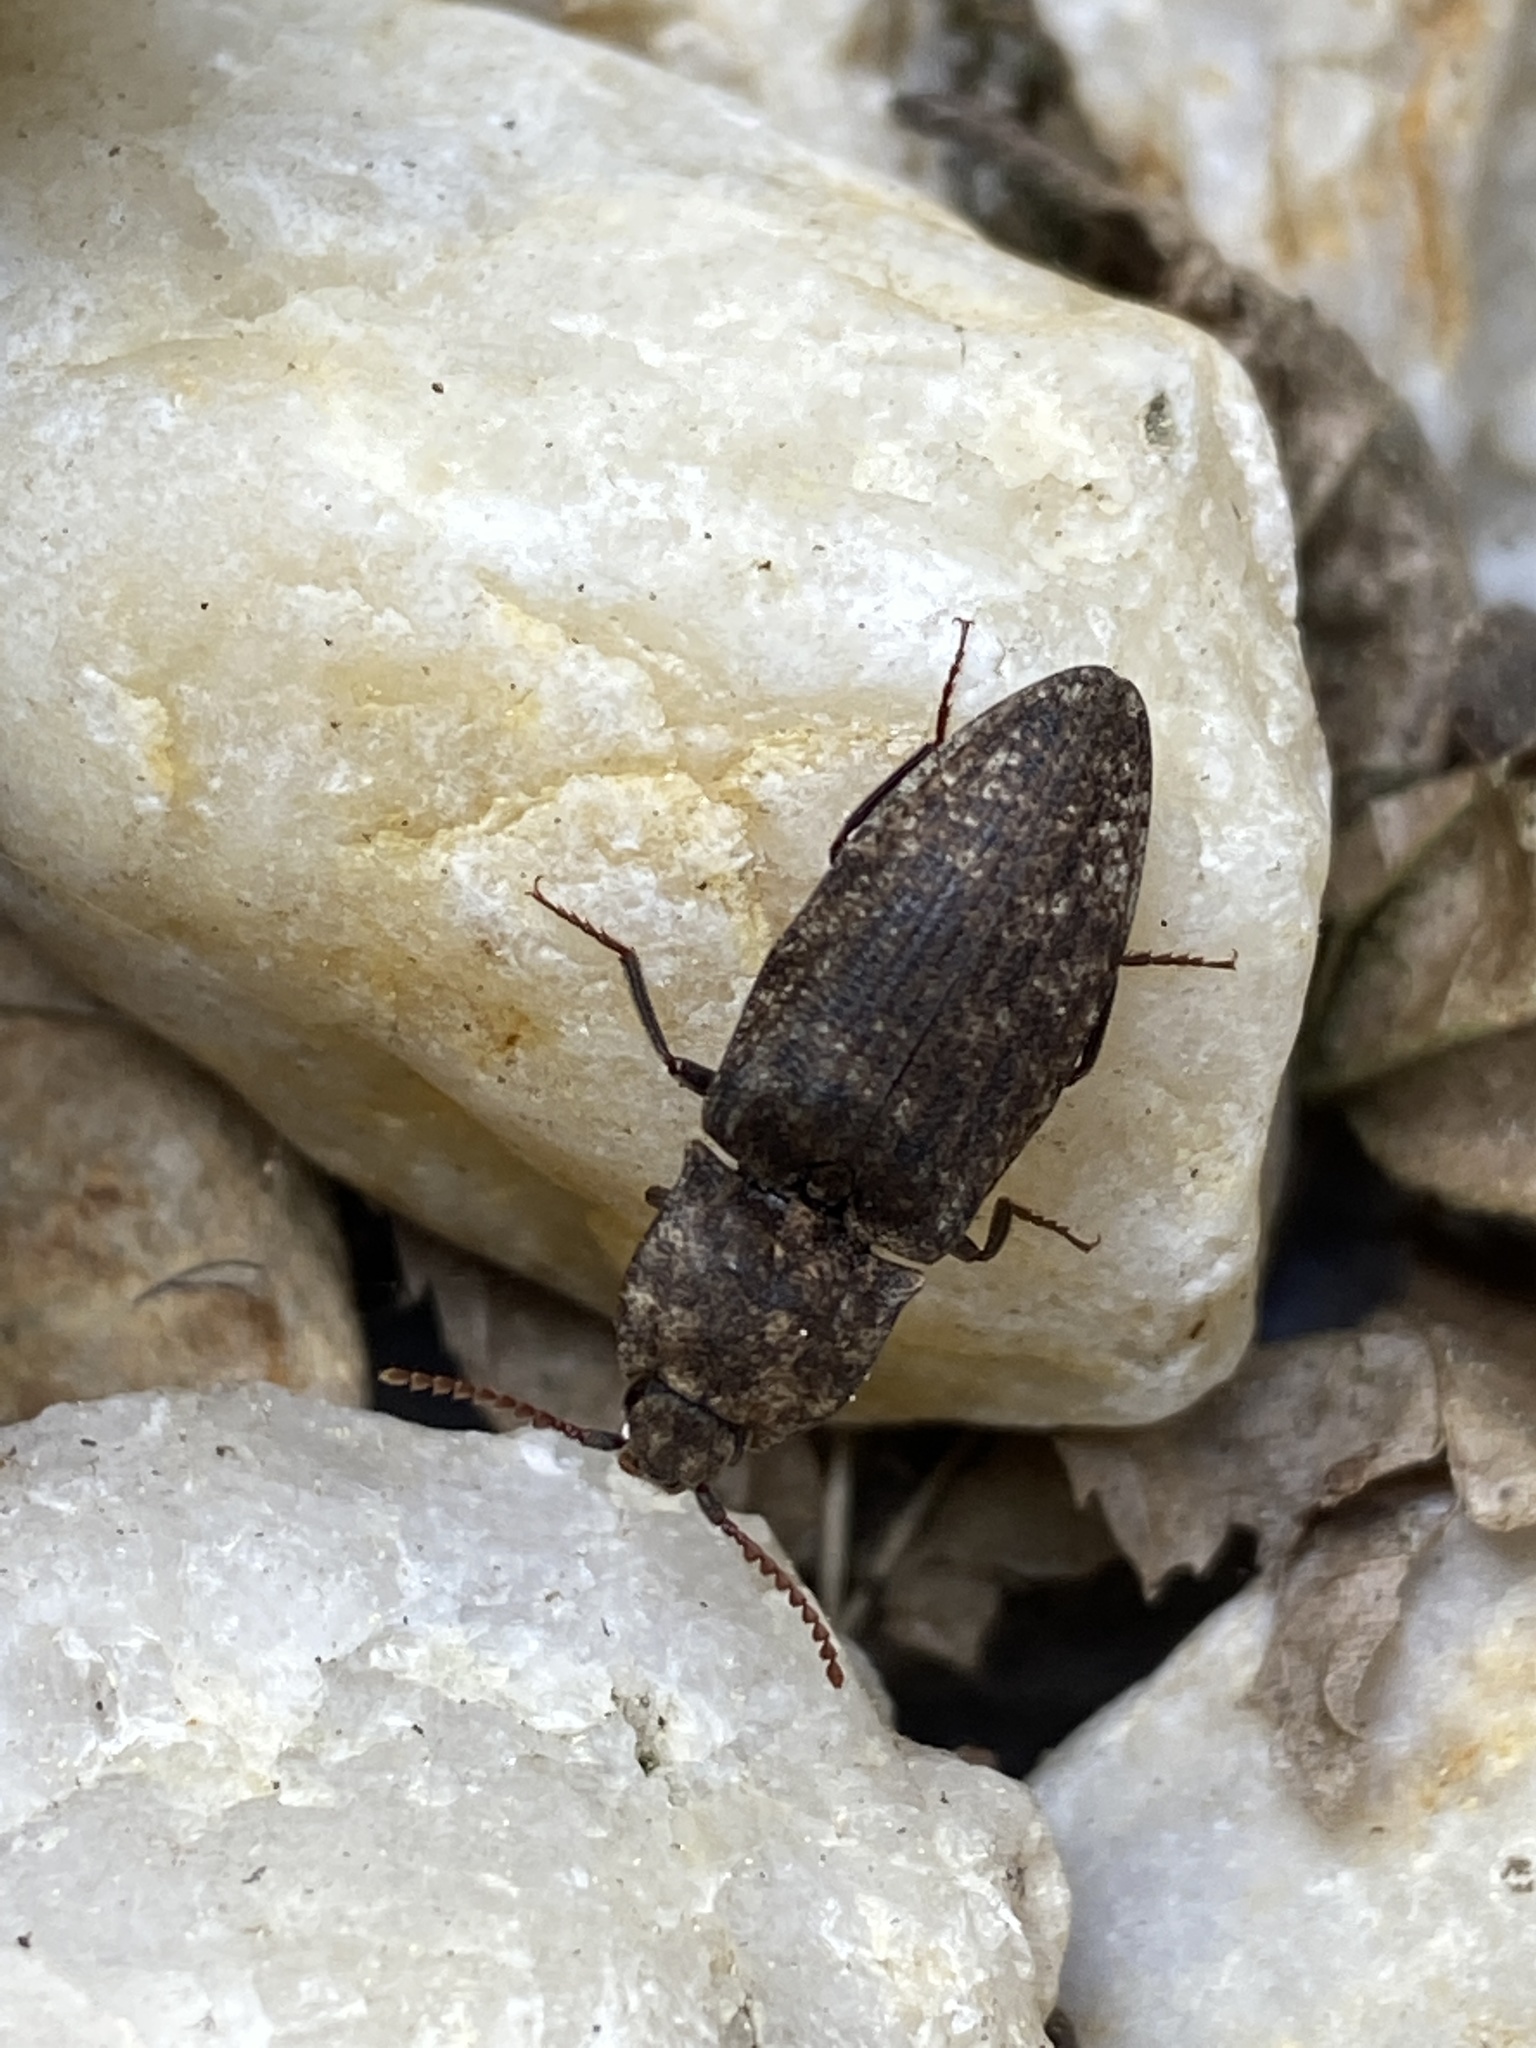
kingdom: Animalia
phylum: Arthropoda
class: Insecta
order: Coleoptera
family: Elateridae
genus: Agrypnus
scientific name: Agrypnus murinus
